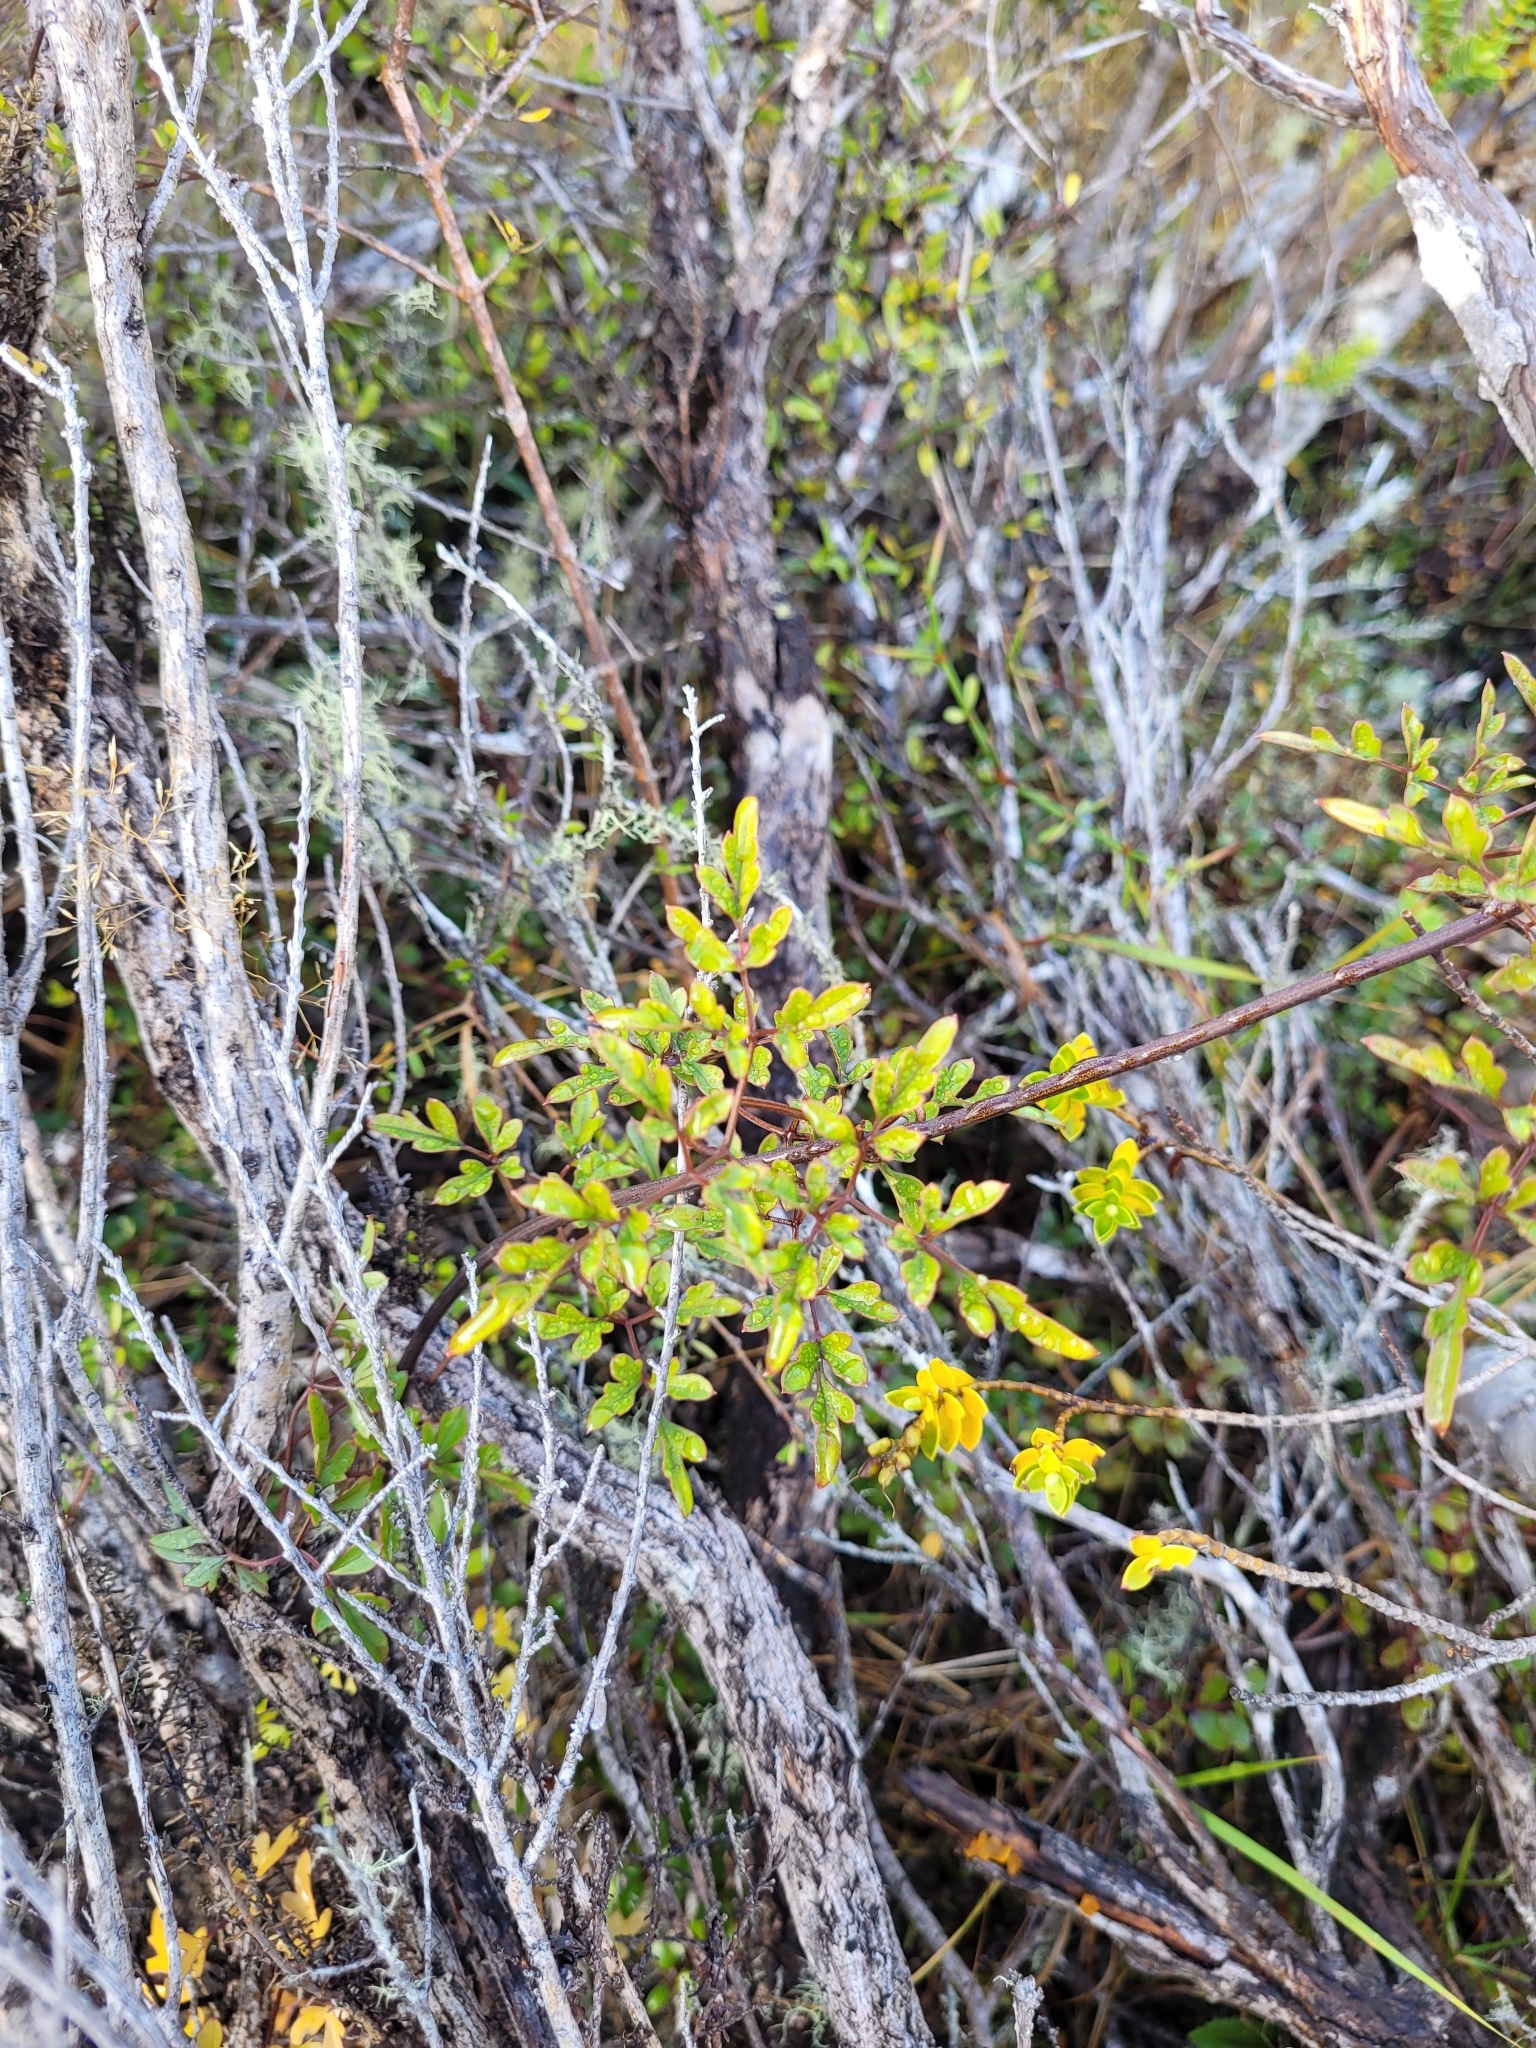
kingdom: Plantae
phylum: Tracheophyta
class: Magnoliopsida
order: Ranunculales
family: Ranunculaceae
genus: Clematis
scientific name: Clematis forsteri
